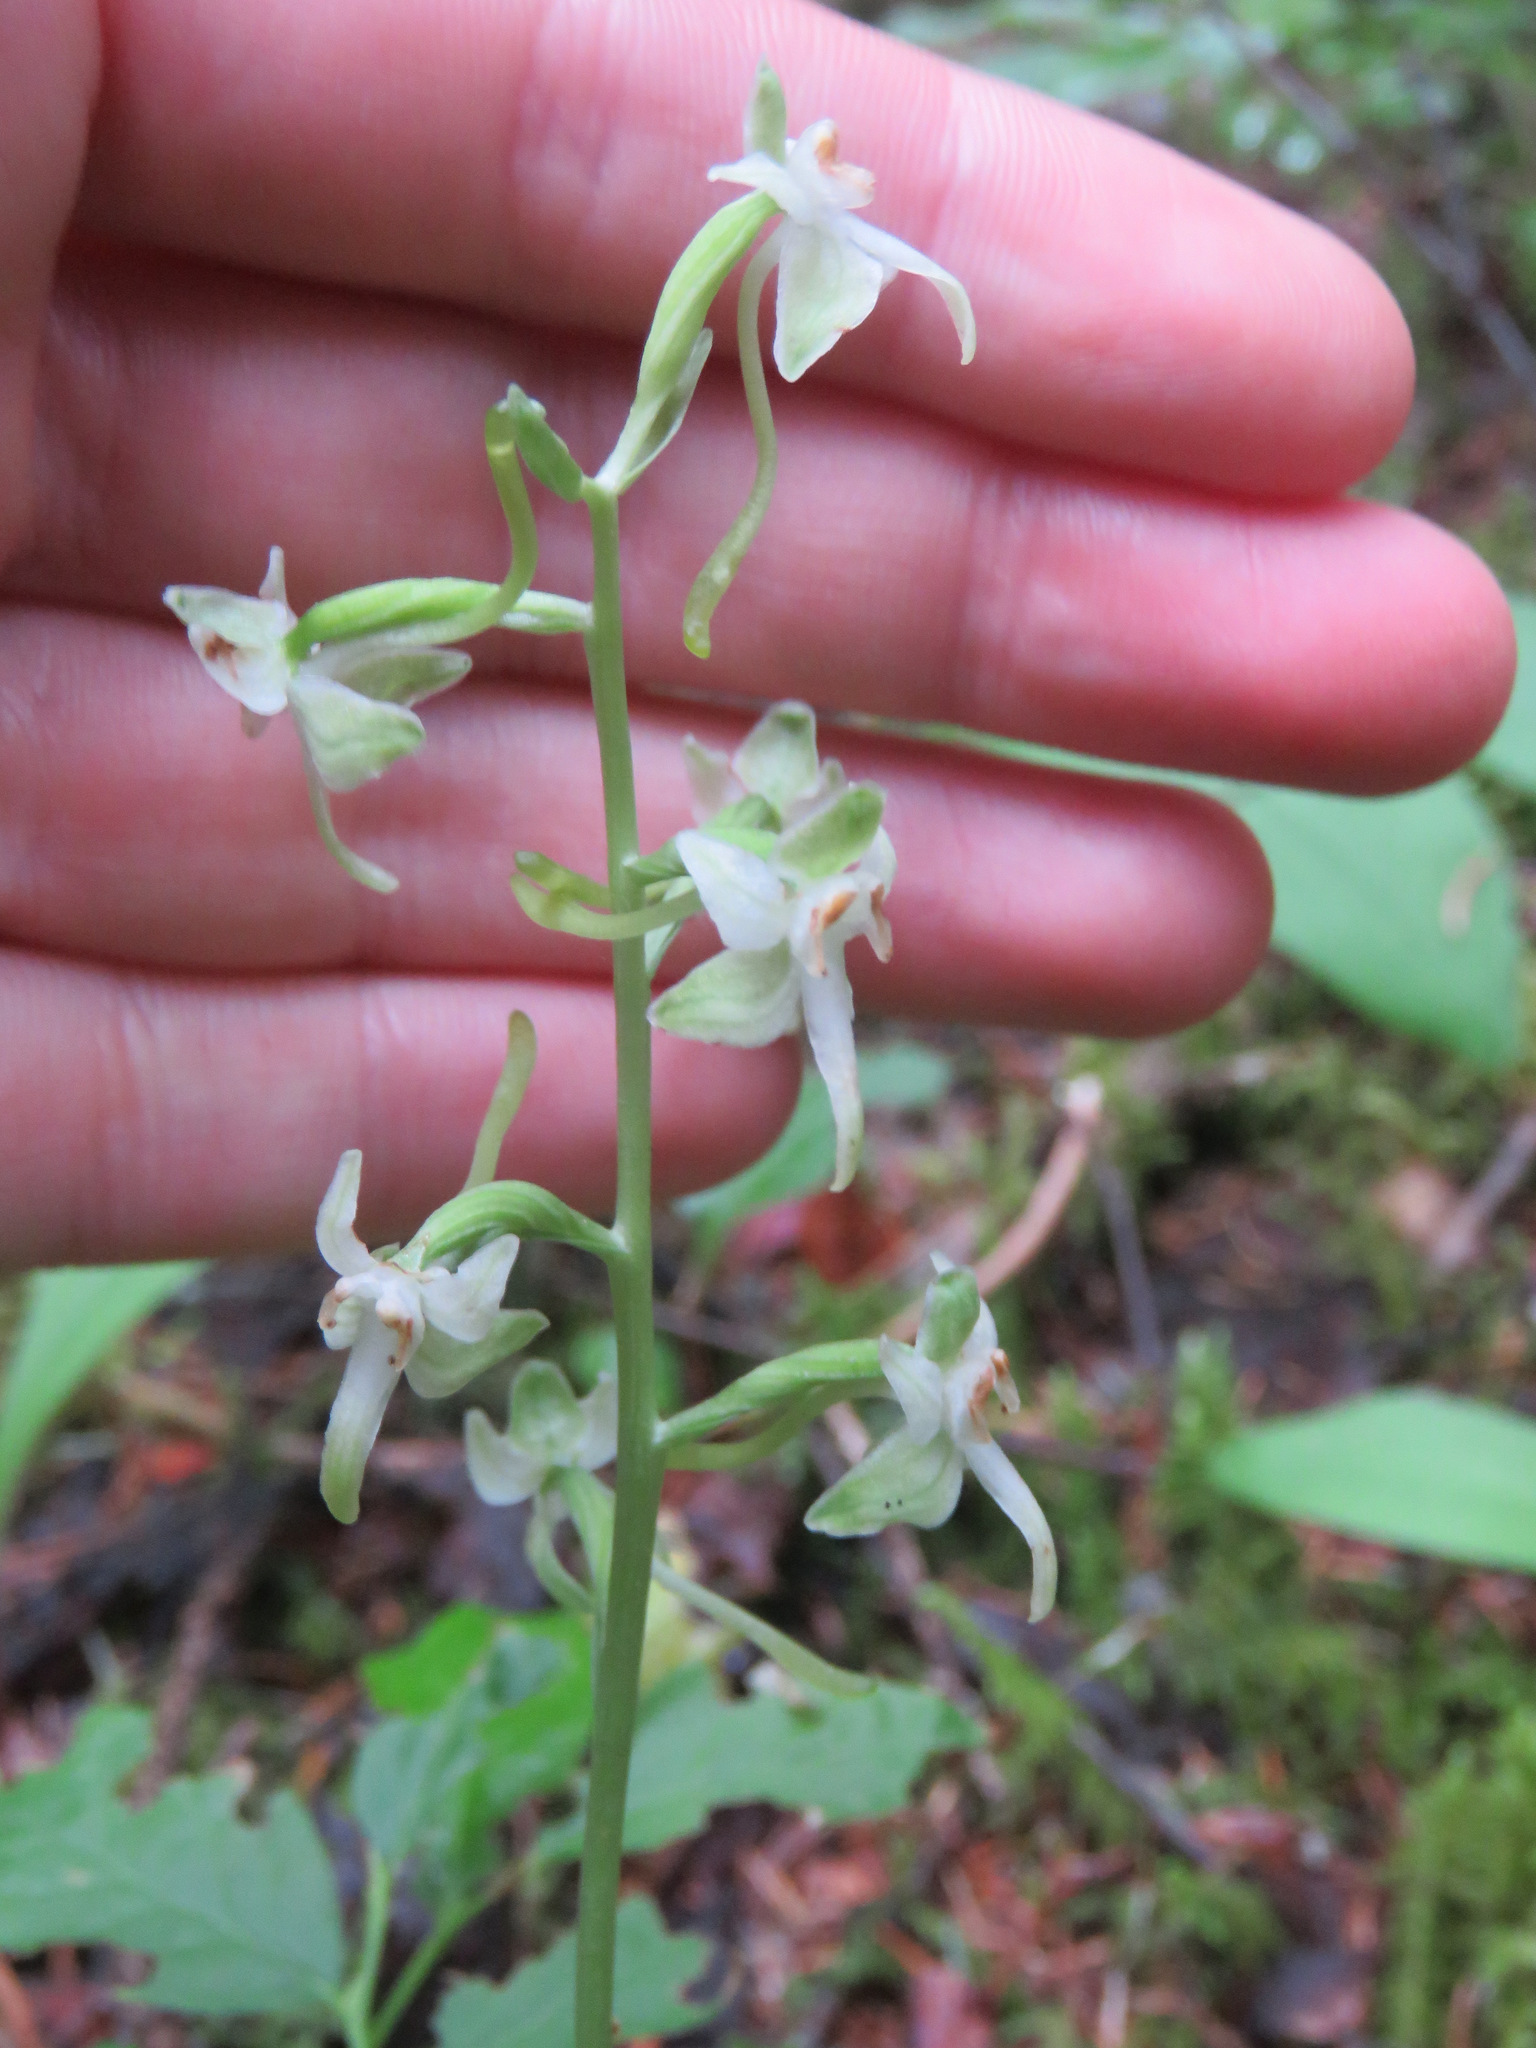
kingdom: Plantae
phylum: Tracheophyta
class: Liliopsida
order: Asparagales
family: Orchidaceae
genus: Platanthera
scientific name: Platanthera orbiculata
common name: Large round-leaved orchid
